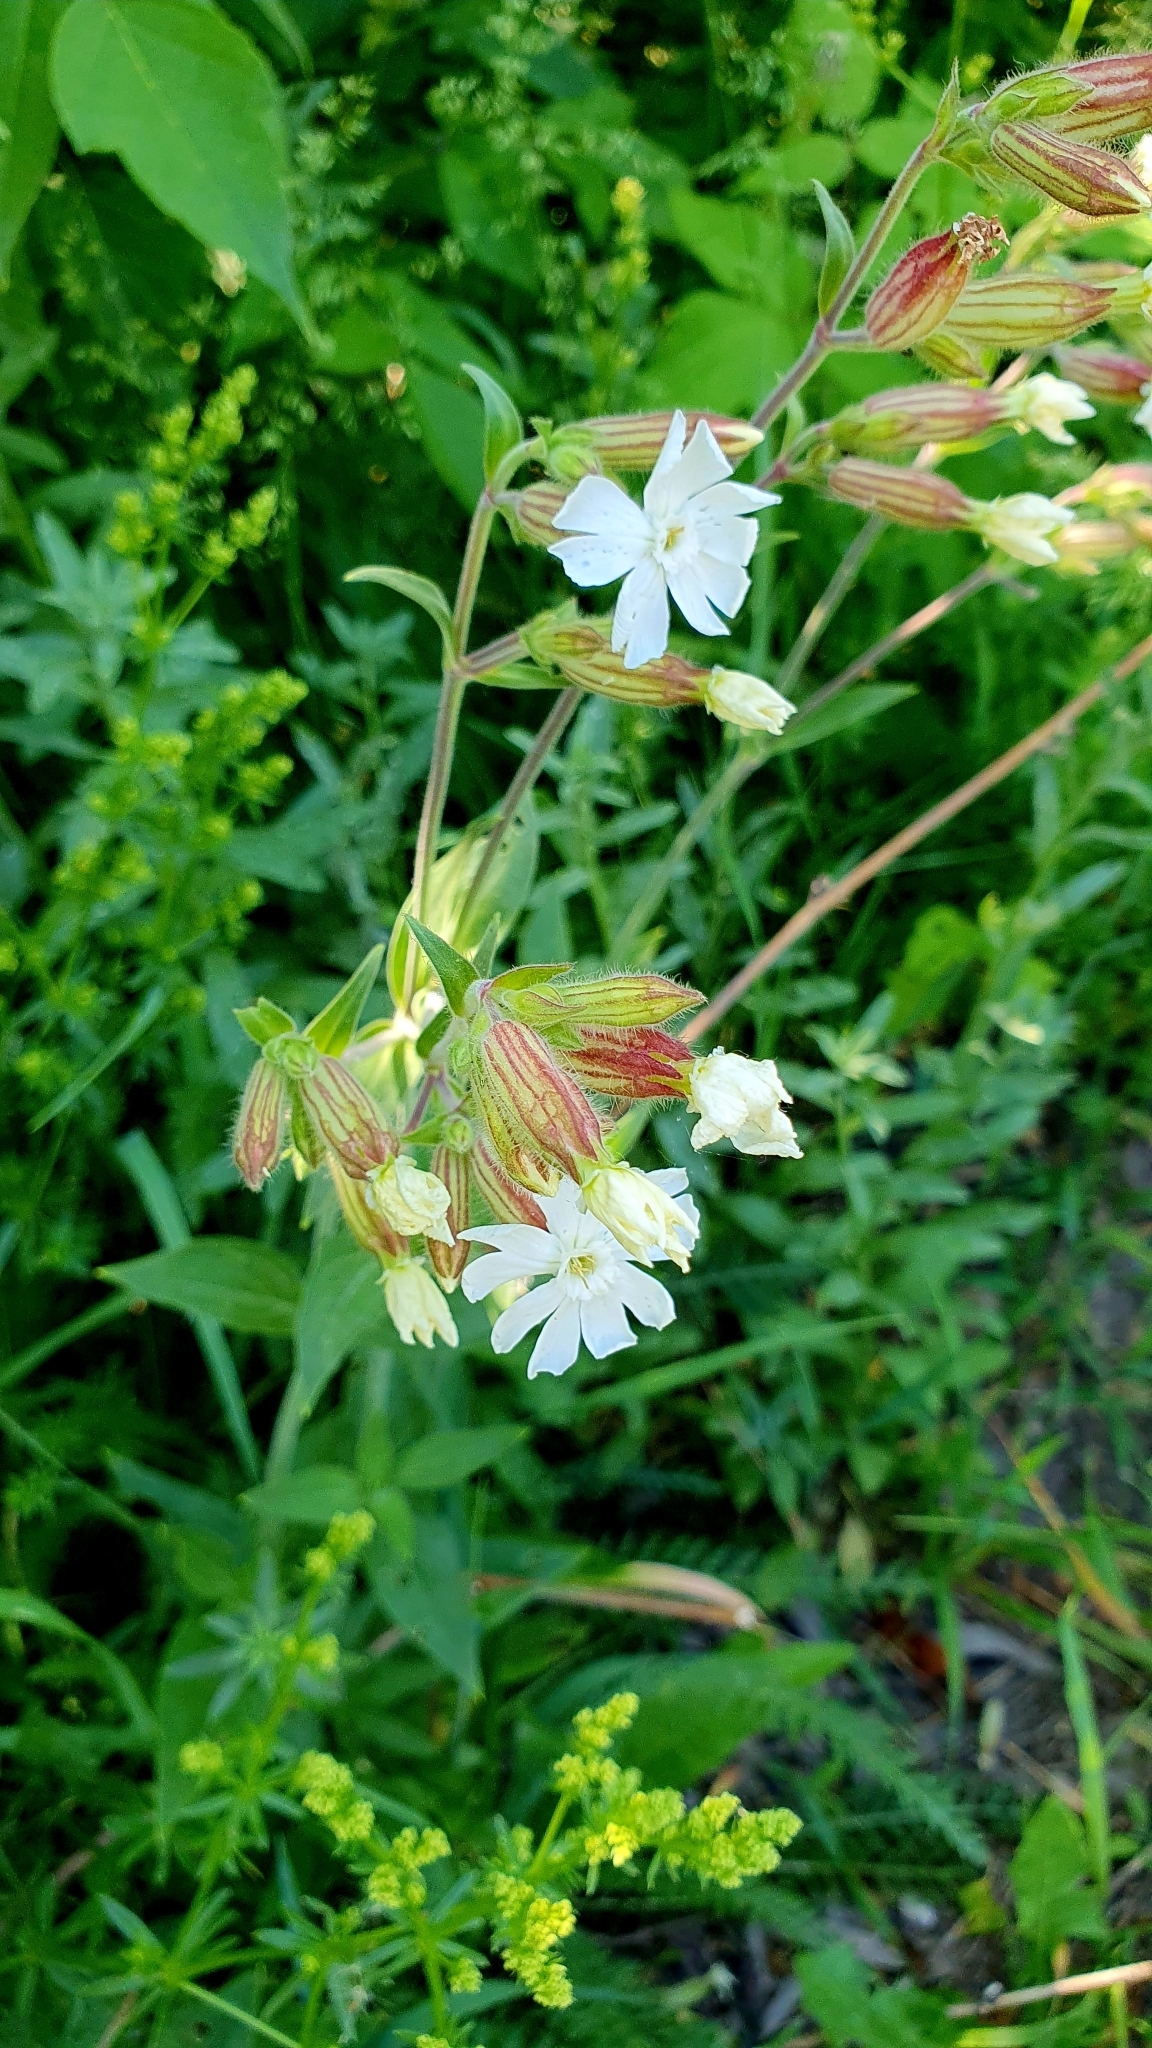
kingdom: Plantae
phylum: Tracheophyta
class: Magnoliopsida
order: Caryophyllales
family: Caryophyllaceae
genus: Silene
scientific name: Silene latifolia
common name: White campion
